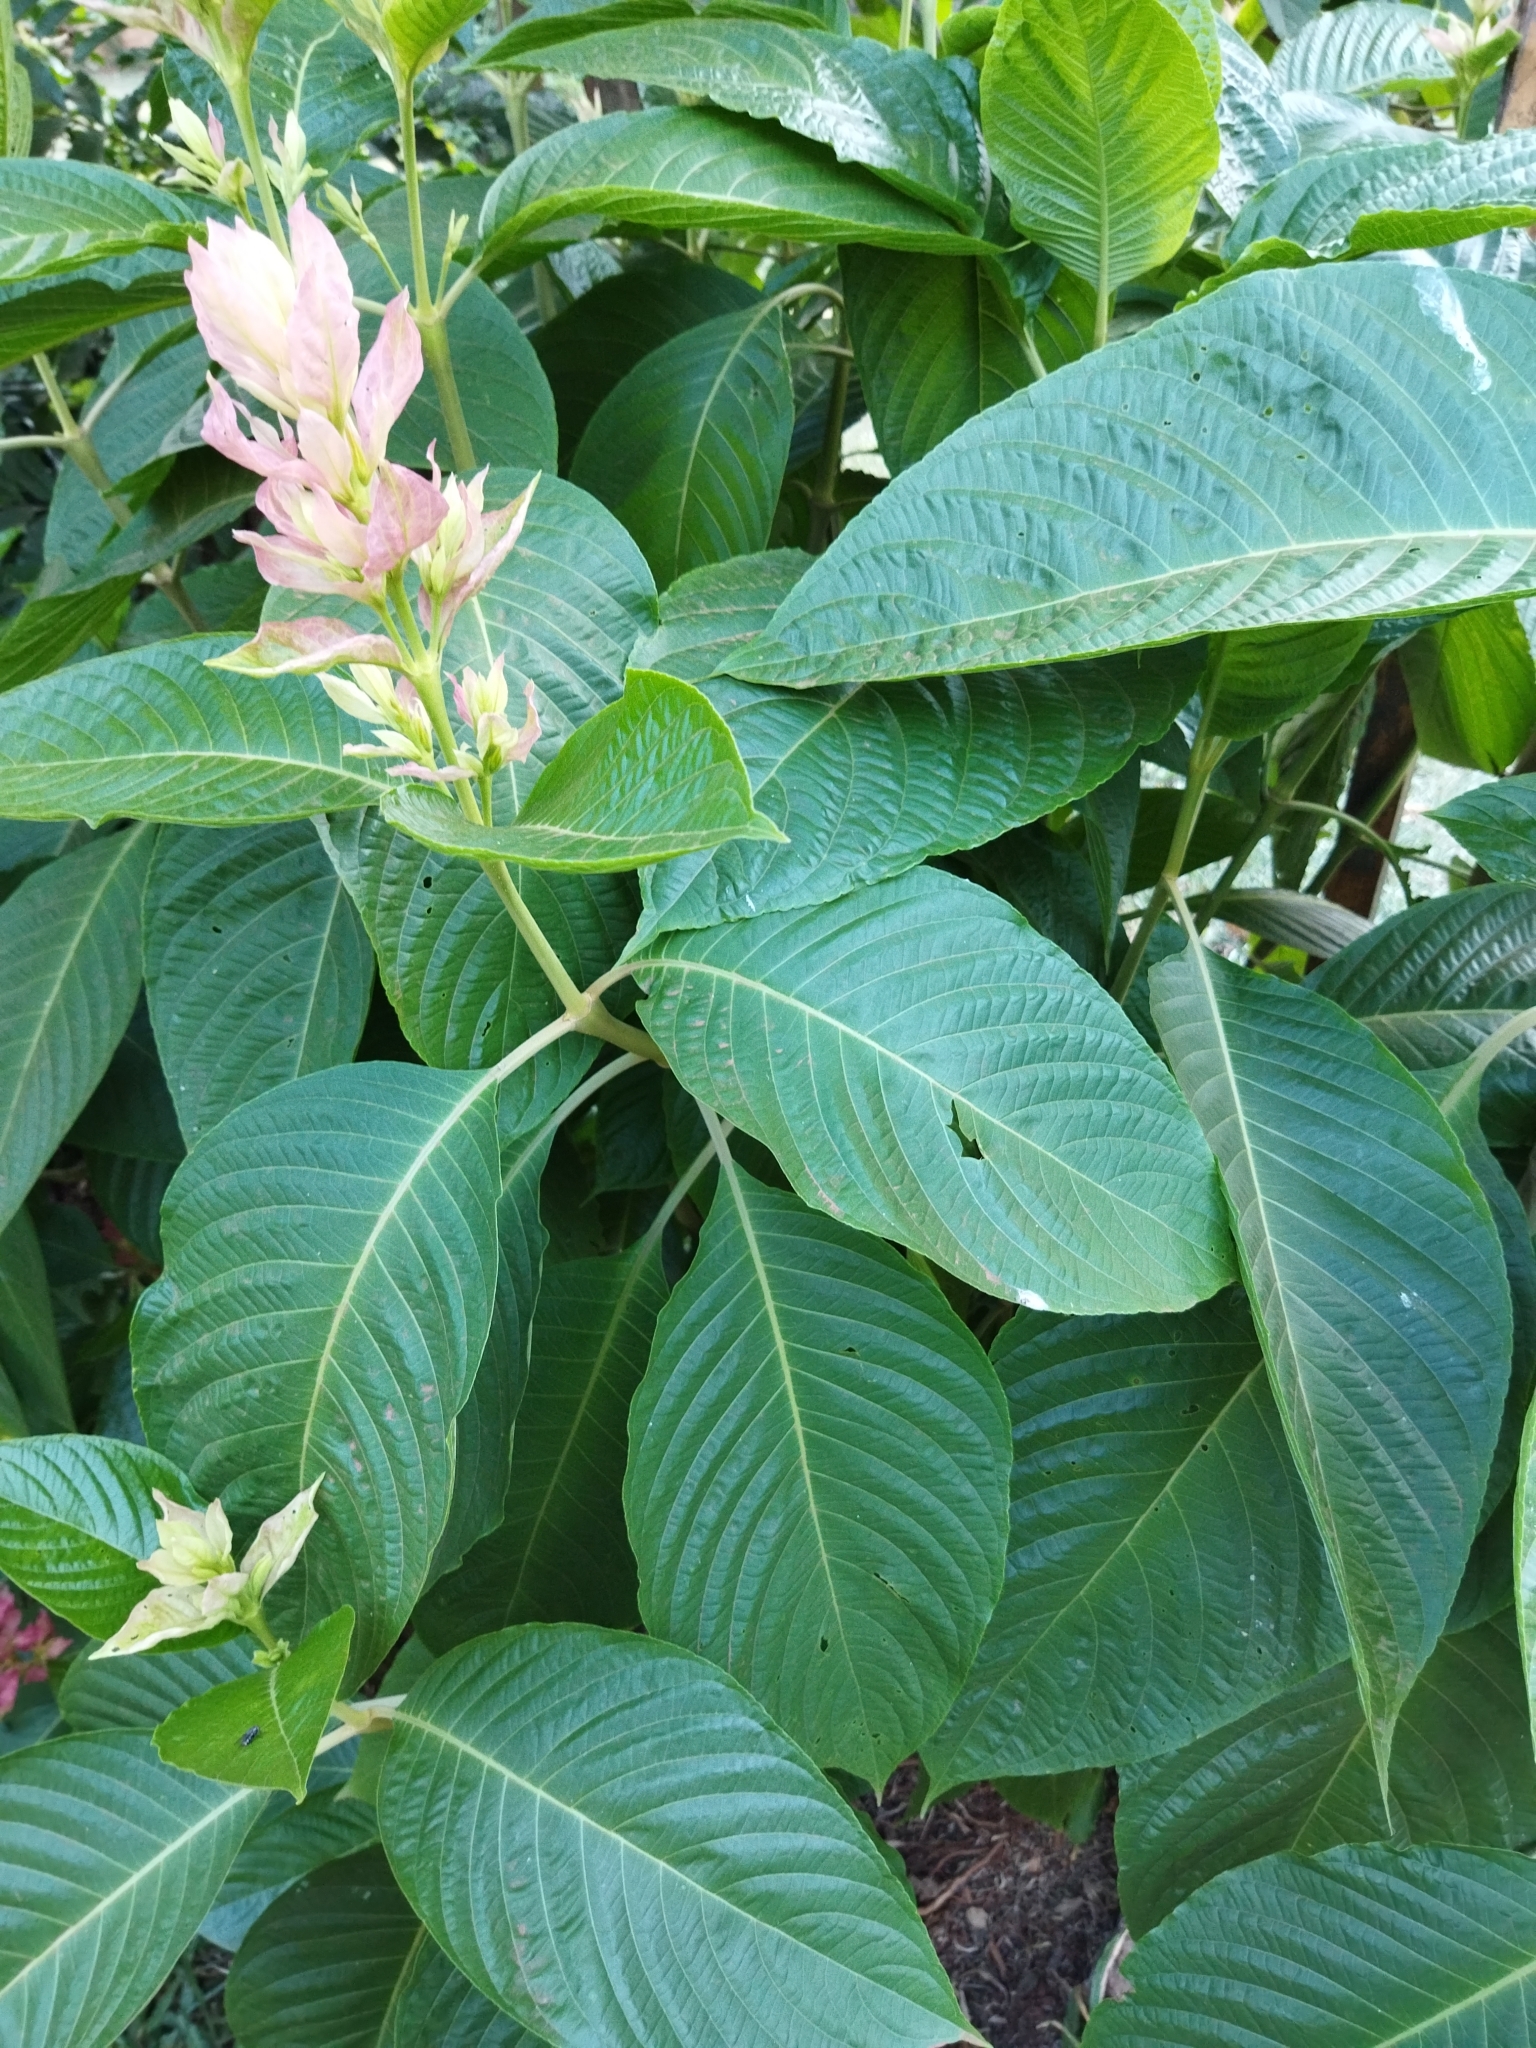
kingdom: Plantae
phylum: Tracheophyta
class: Magnoliopsida
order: Lamiales
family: Acanthaceae
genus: Megaskepasma
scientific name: Megaskepasma erythrochlamys
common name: Brazilian red-cloak
